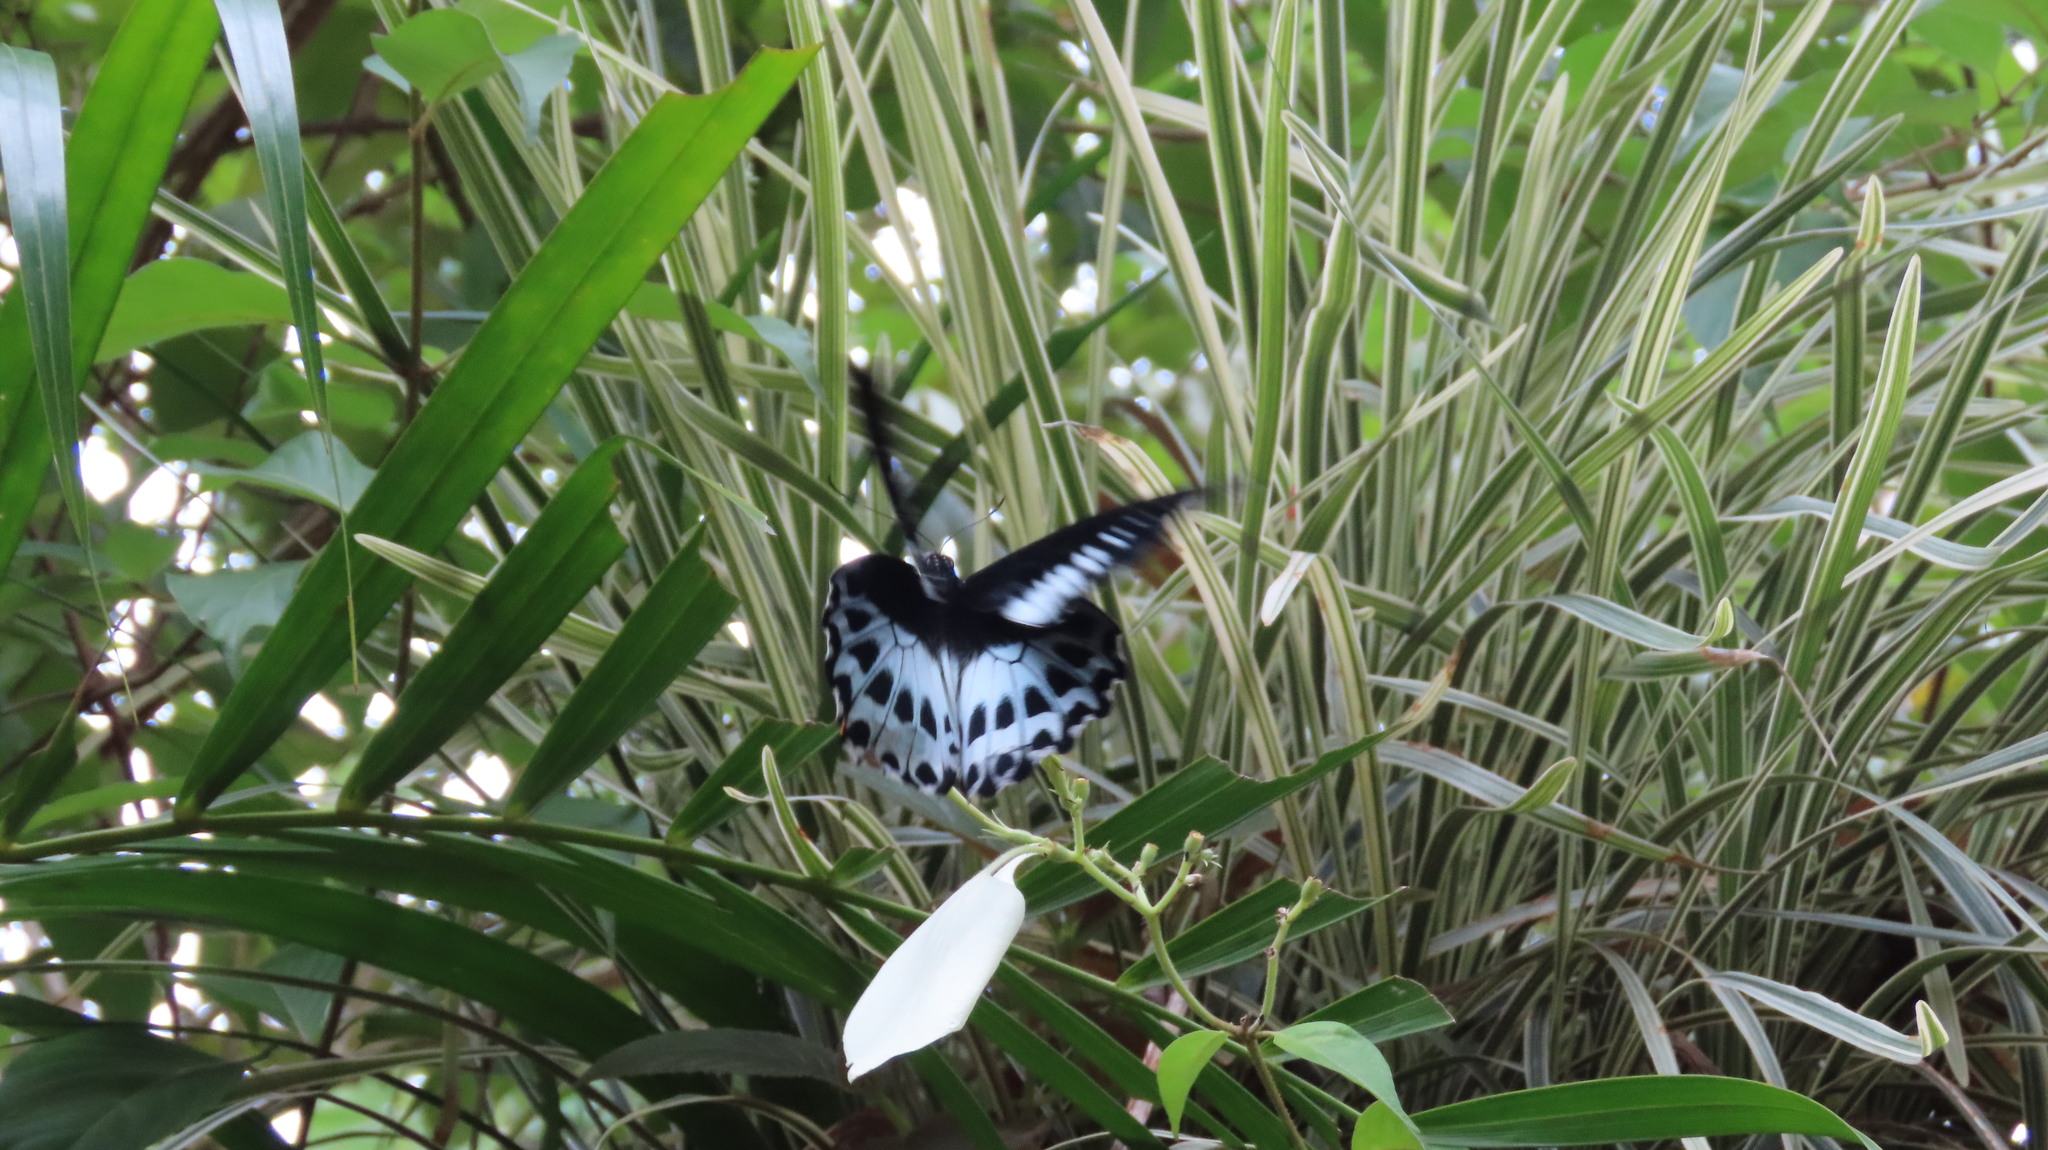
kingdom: Animalia
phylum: Arthropoda
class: Insecta
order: Lepidoptera
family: Papilionidae
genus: Papilio
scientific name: Papilio memnon
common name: Great mormon
